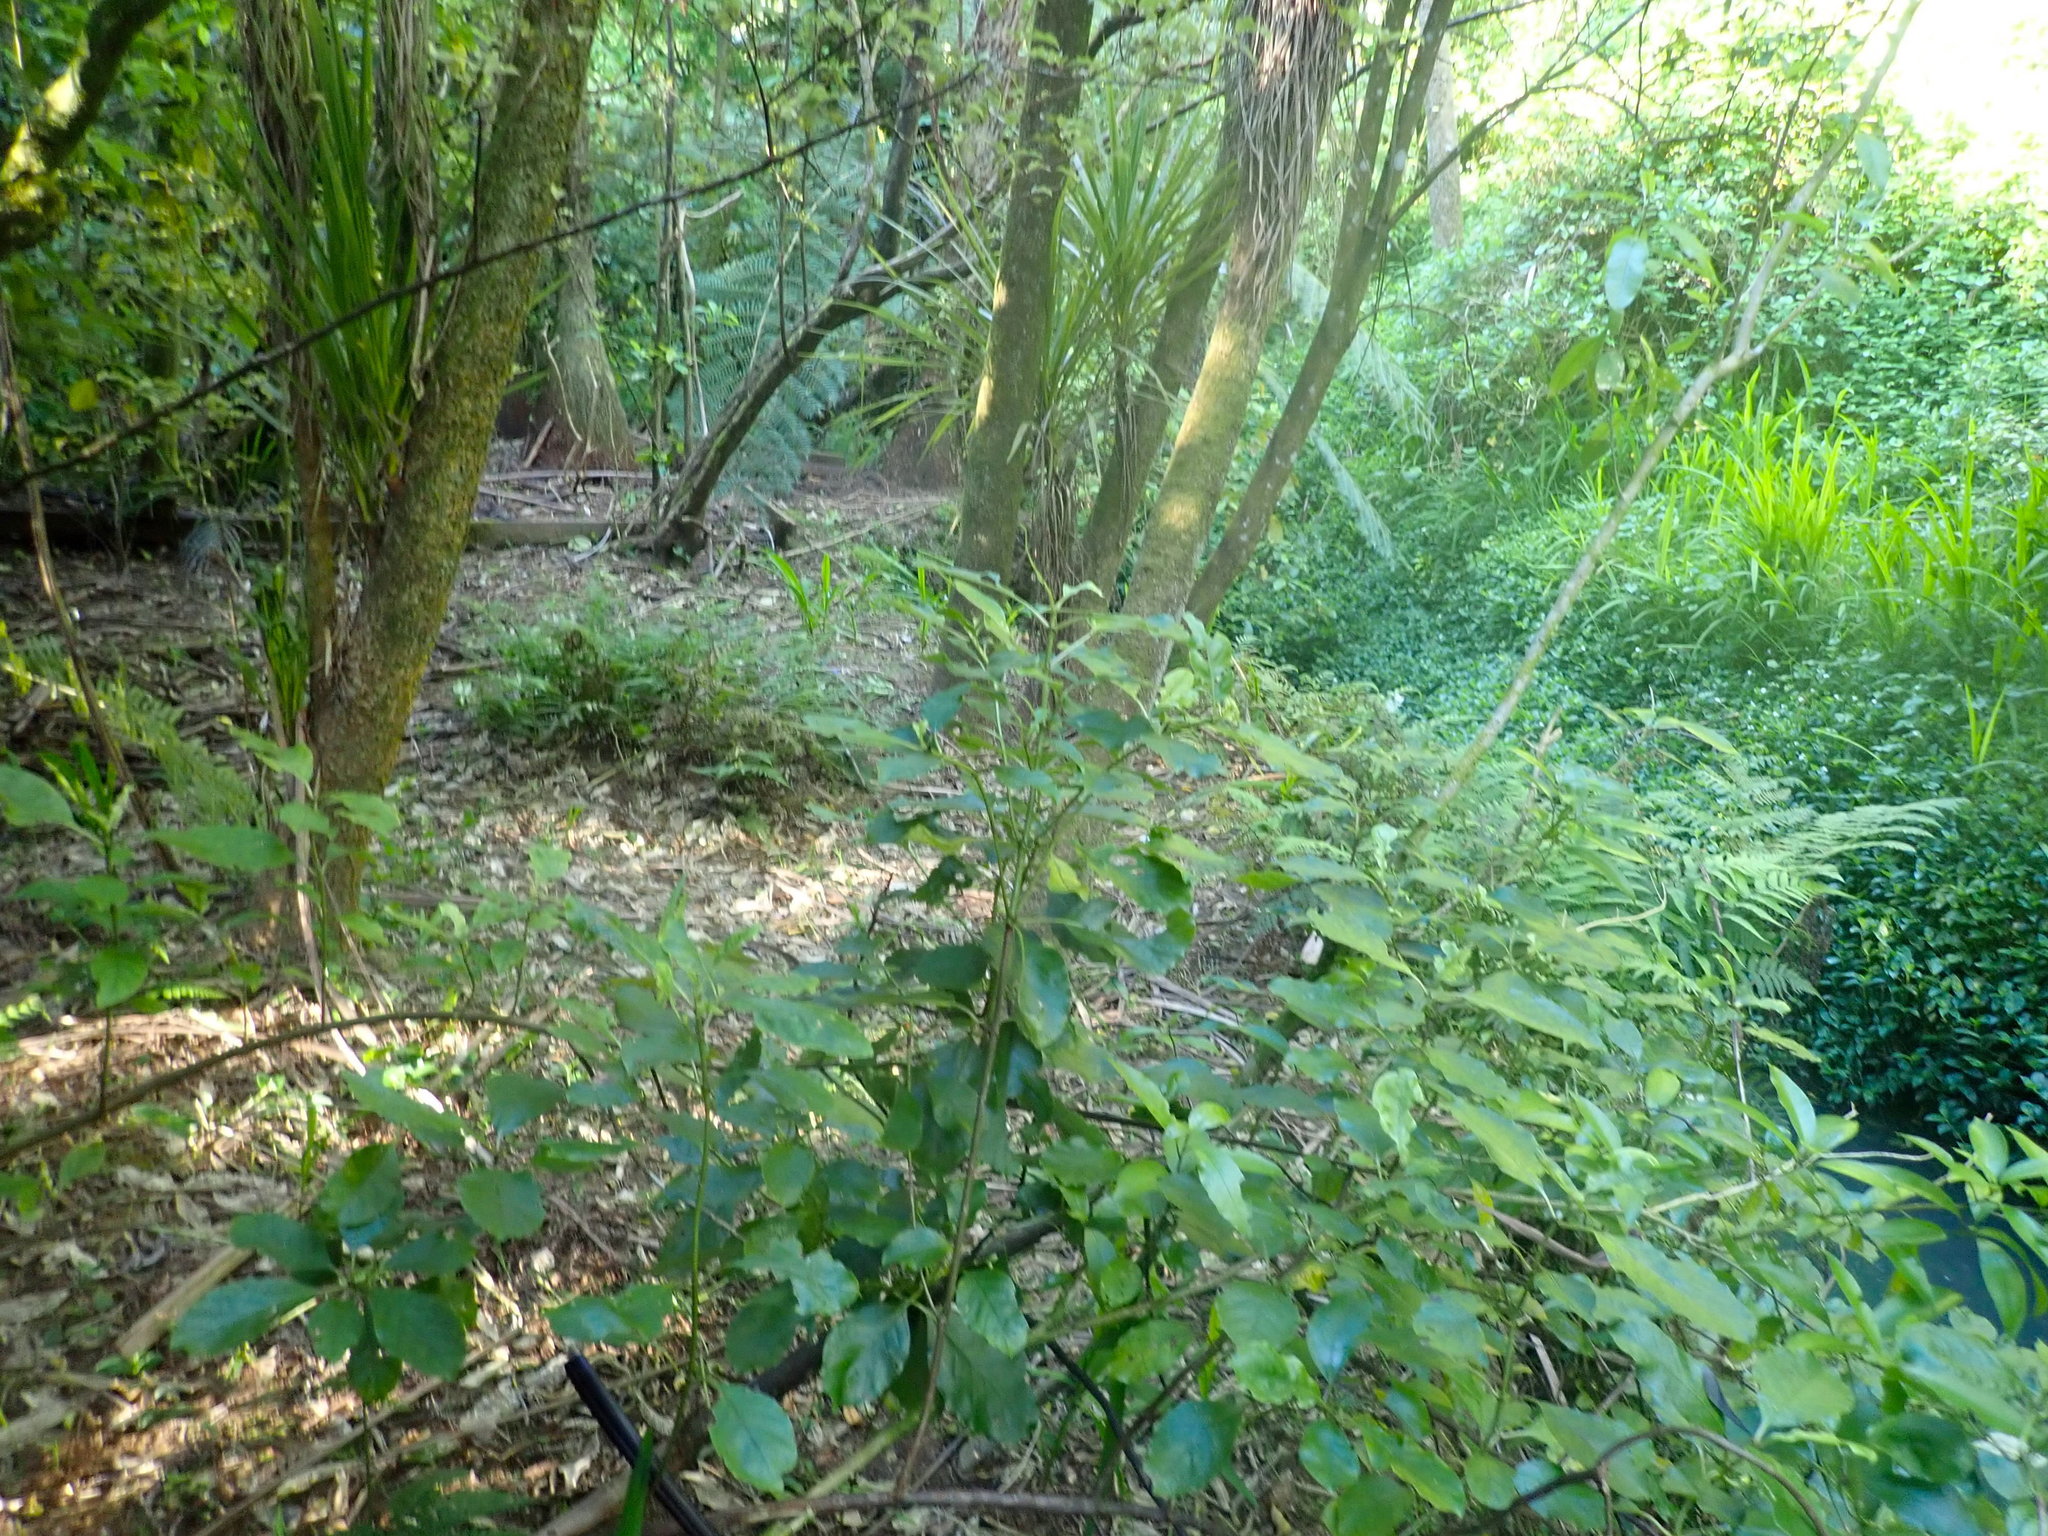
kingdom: Plantae
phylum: Tracheophyta
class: Liliopsida
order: Asparagales
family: Asparagaceae
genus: Cordyline
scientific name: Cordyline australis
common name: Cabbage-palm
